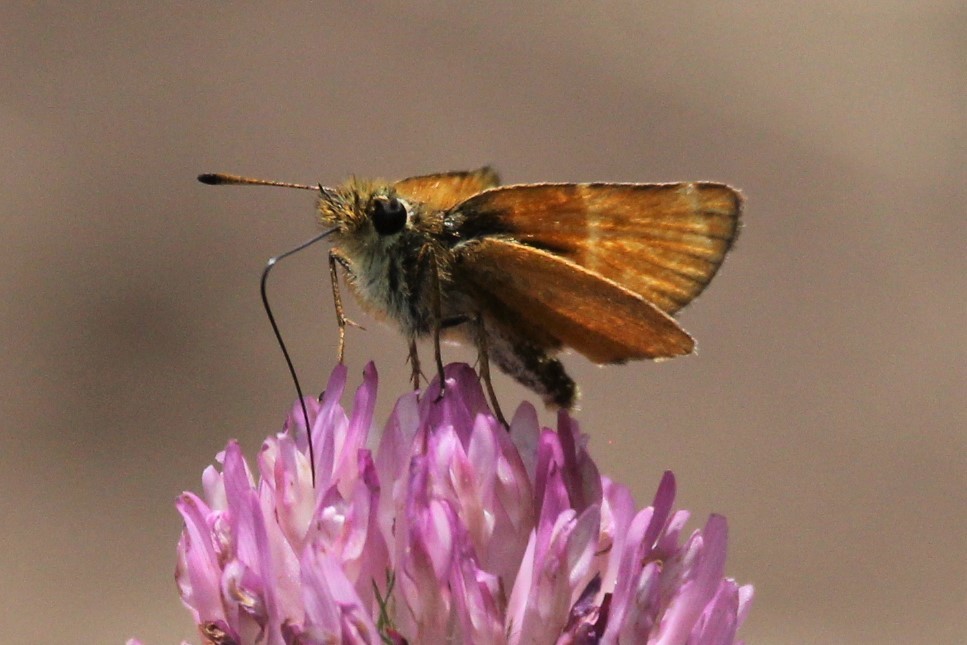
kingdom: Animalia
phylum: Arthropoda
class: Insecta
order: Lepidoptera
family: Hesperiidae
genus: Thymelicus
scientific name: Thymelicus lineola
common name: Essex skipper
